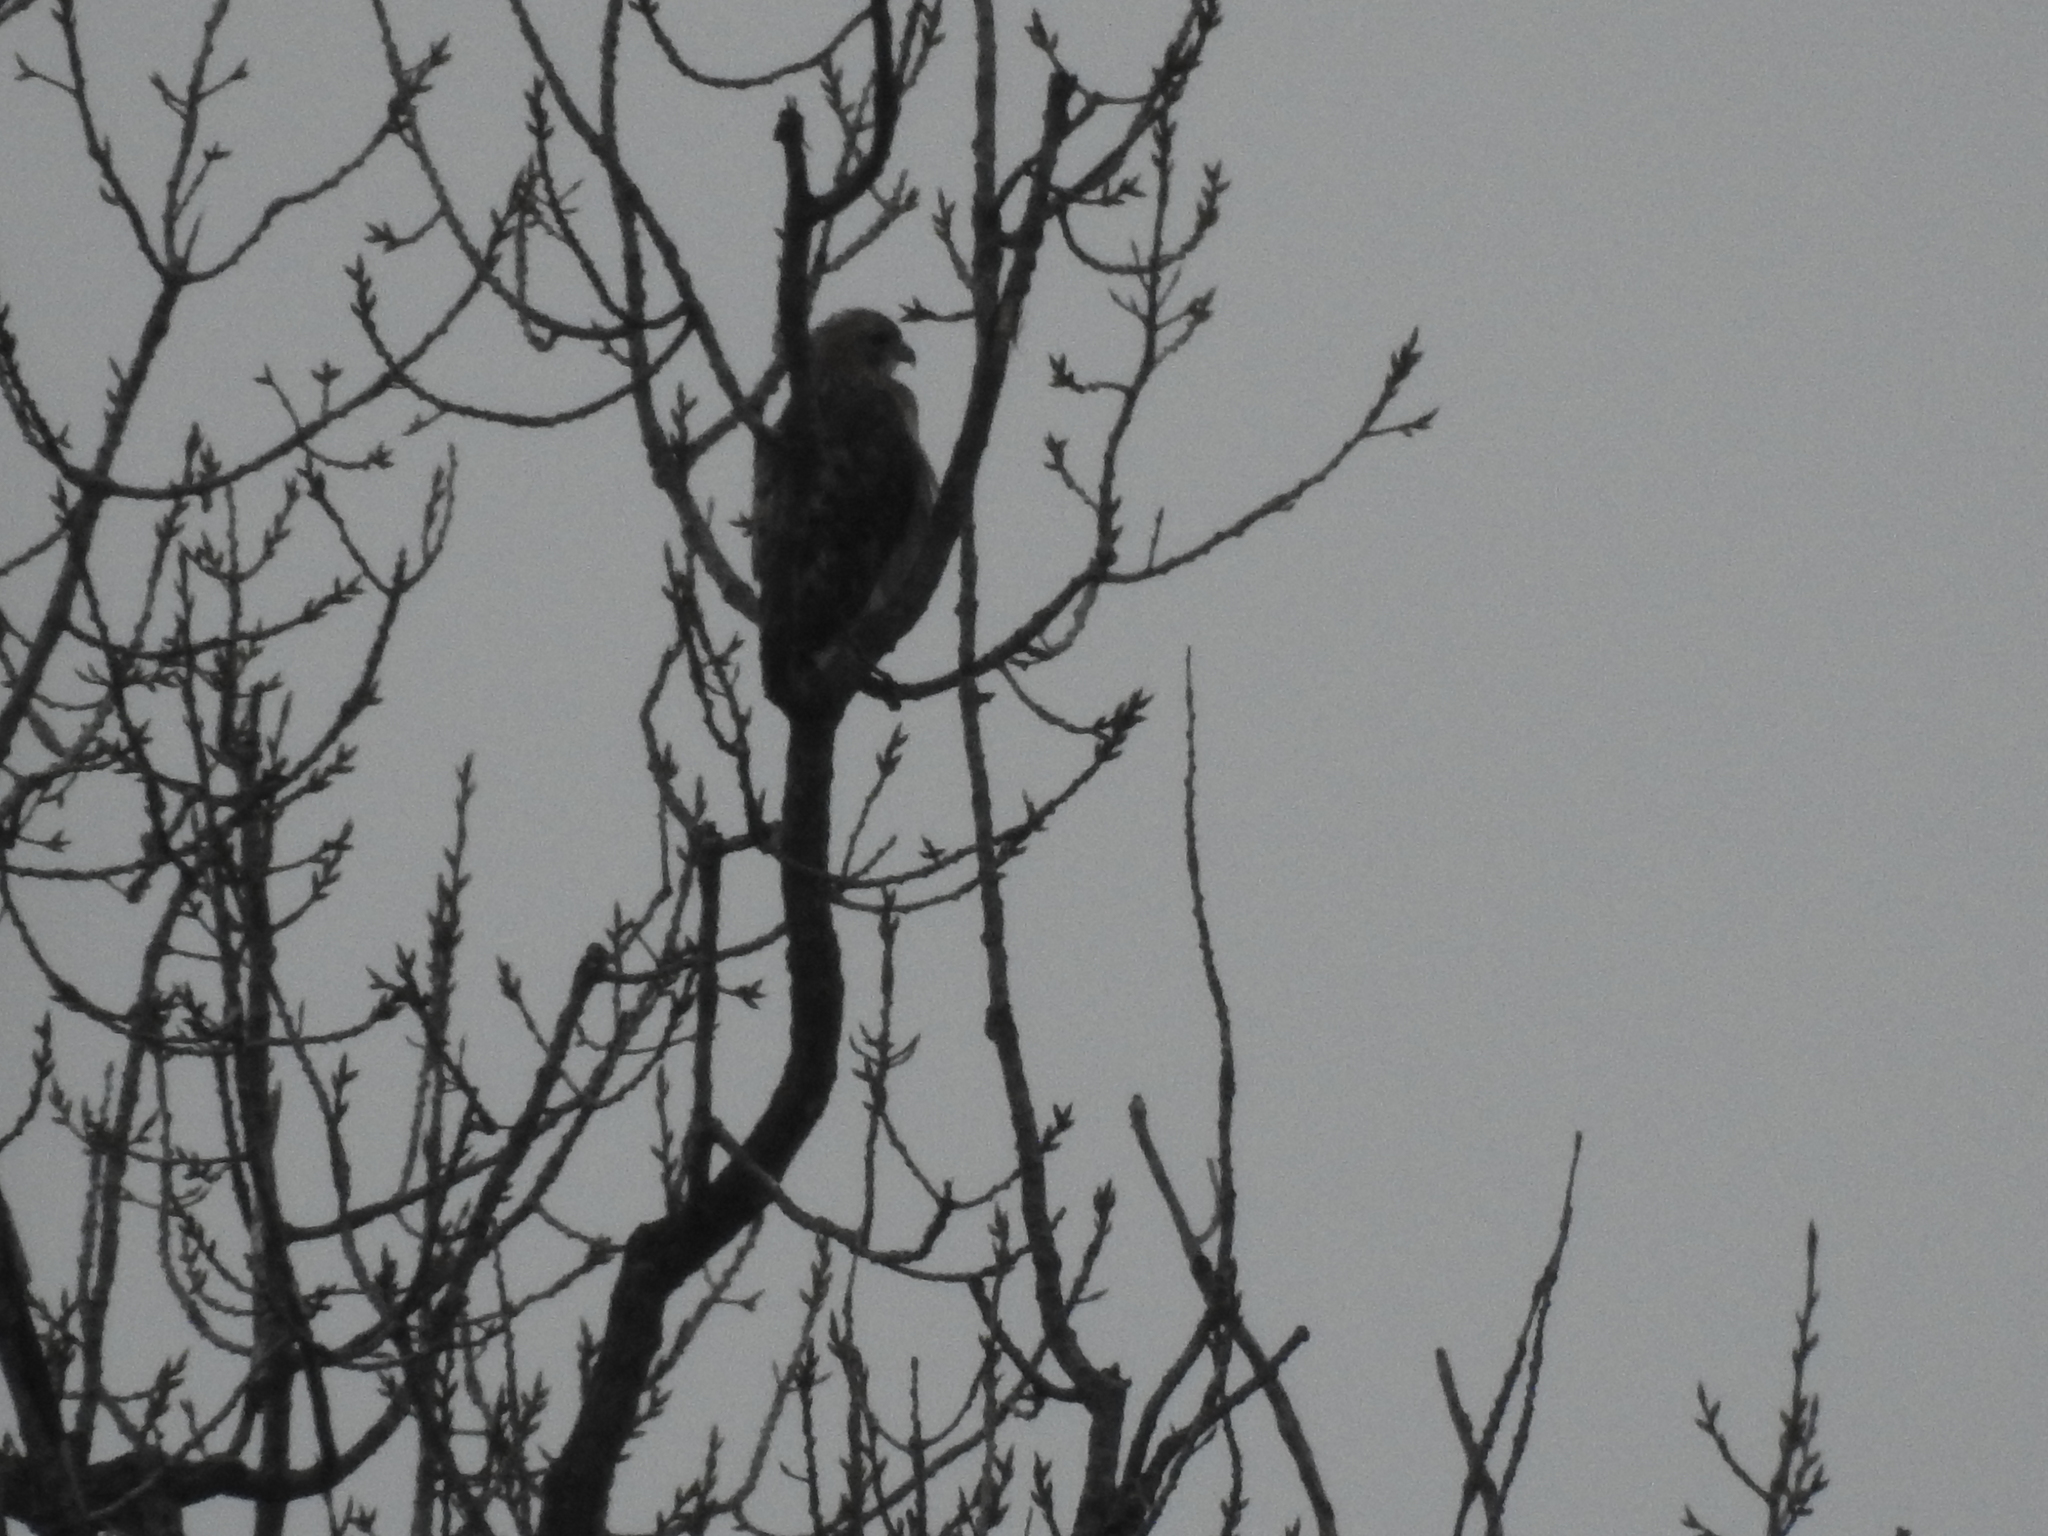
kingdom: Animalia
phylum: Chordata
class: Aves
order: Accipitriformes
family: Accipitridae
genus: Buteo
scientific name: Buteo jamaicensis
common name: Red-tailed hawk
